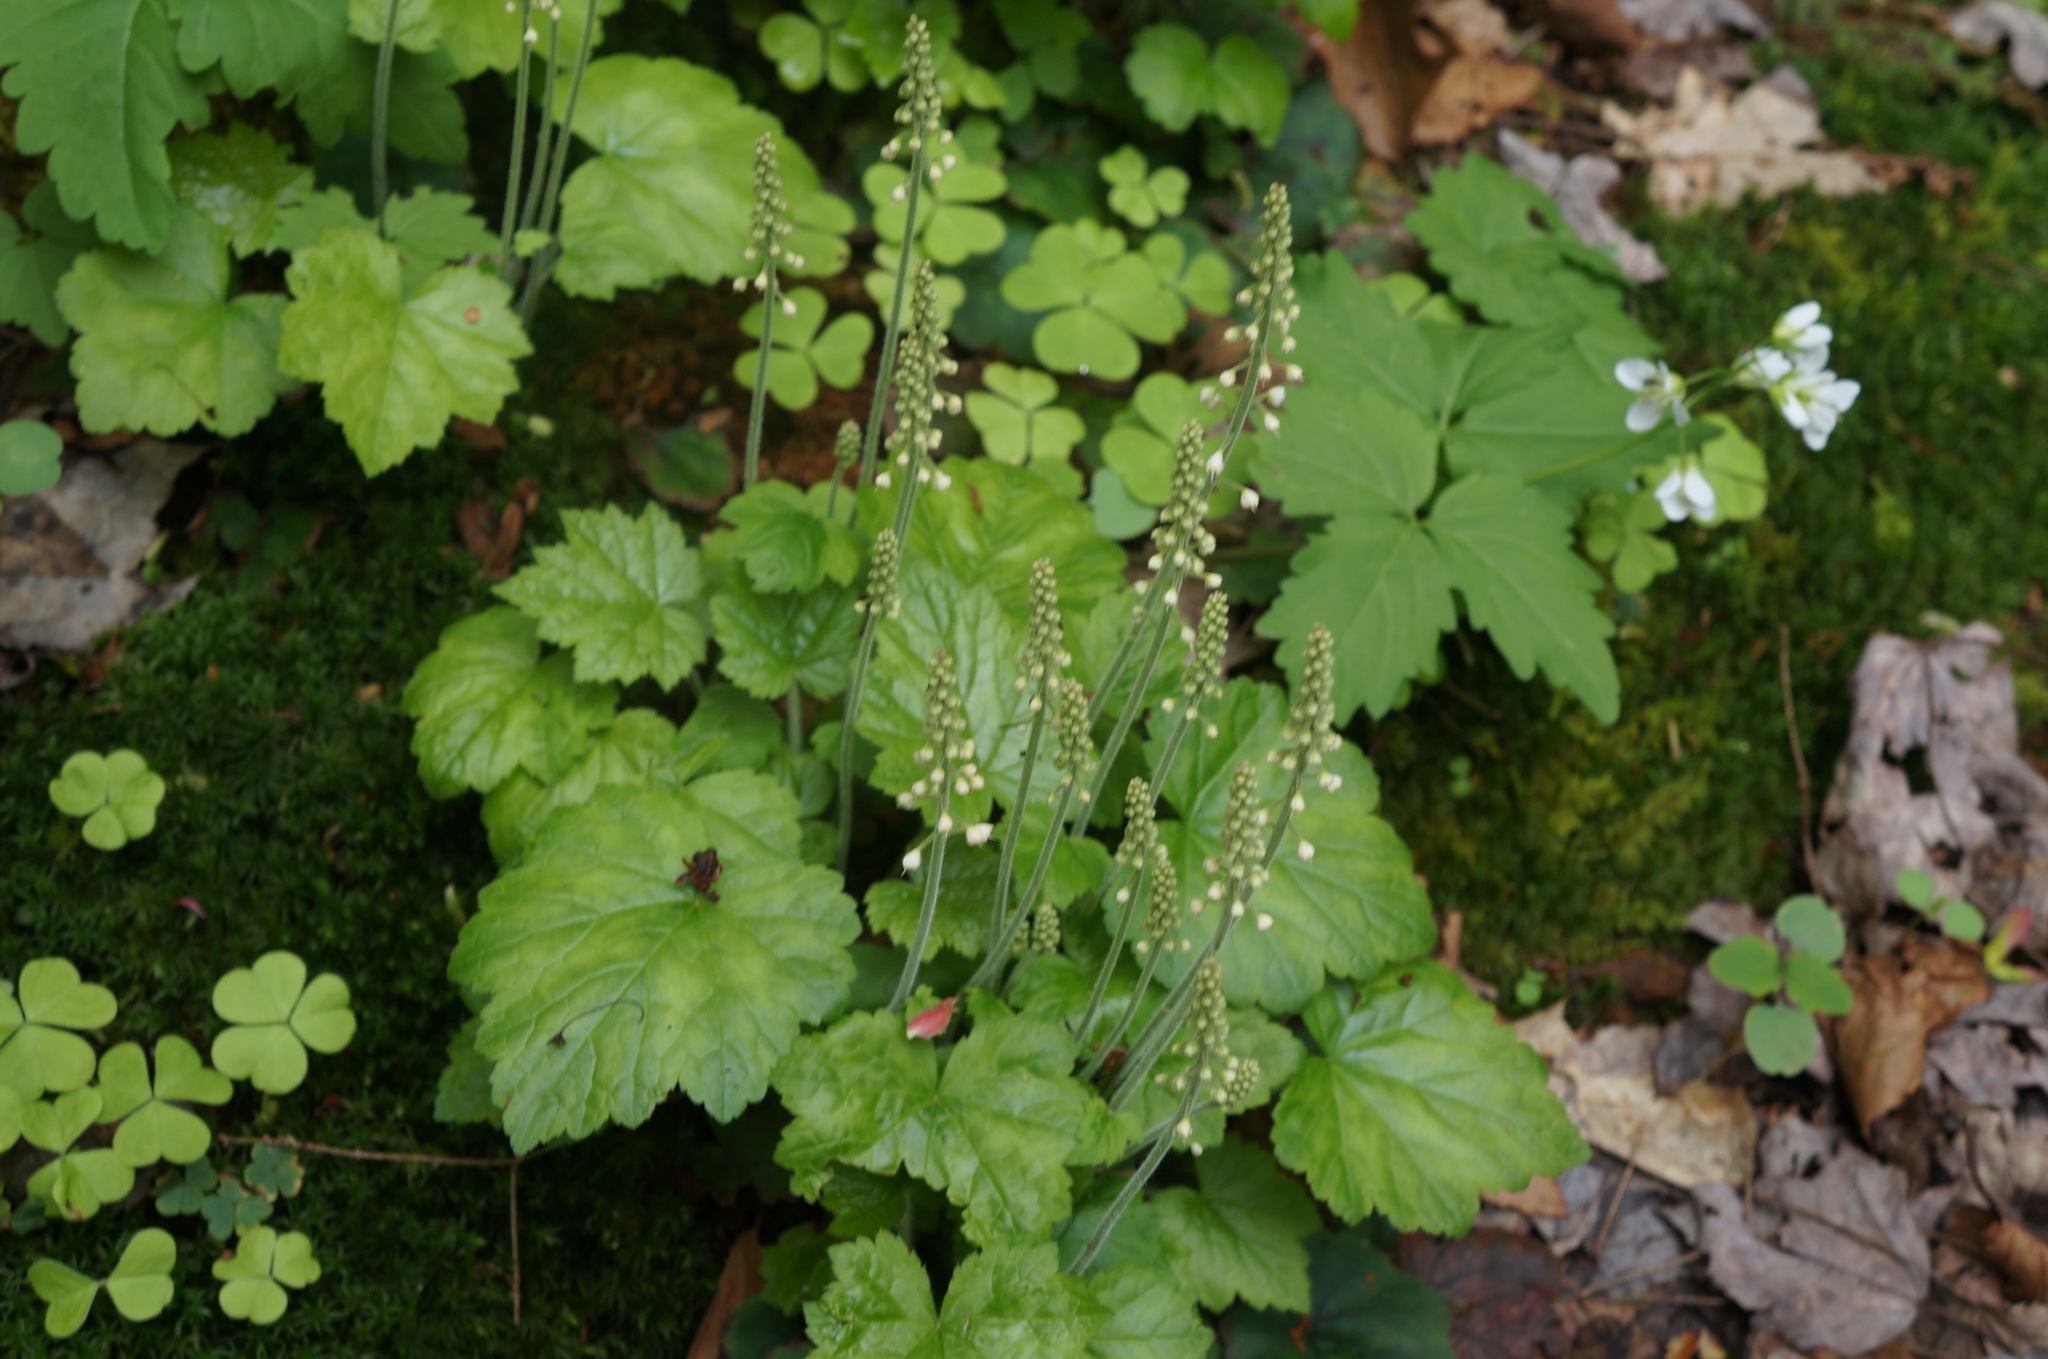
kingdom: Plantae
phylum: Tracheophyta
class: Magnoliopsida
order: Saxifragales
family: Saxifragaceae
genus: Tiarella
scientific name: Tiarella stolonifera
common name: Stoloniferous foamflower
